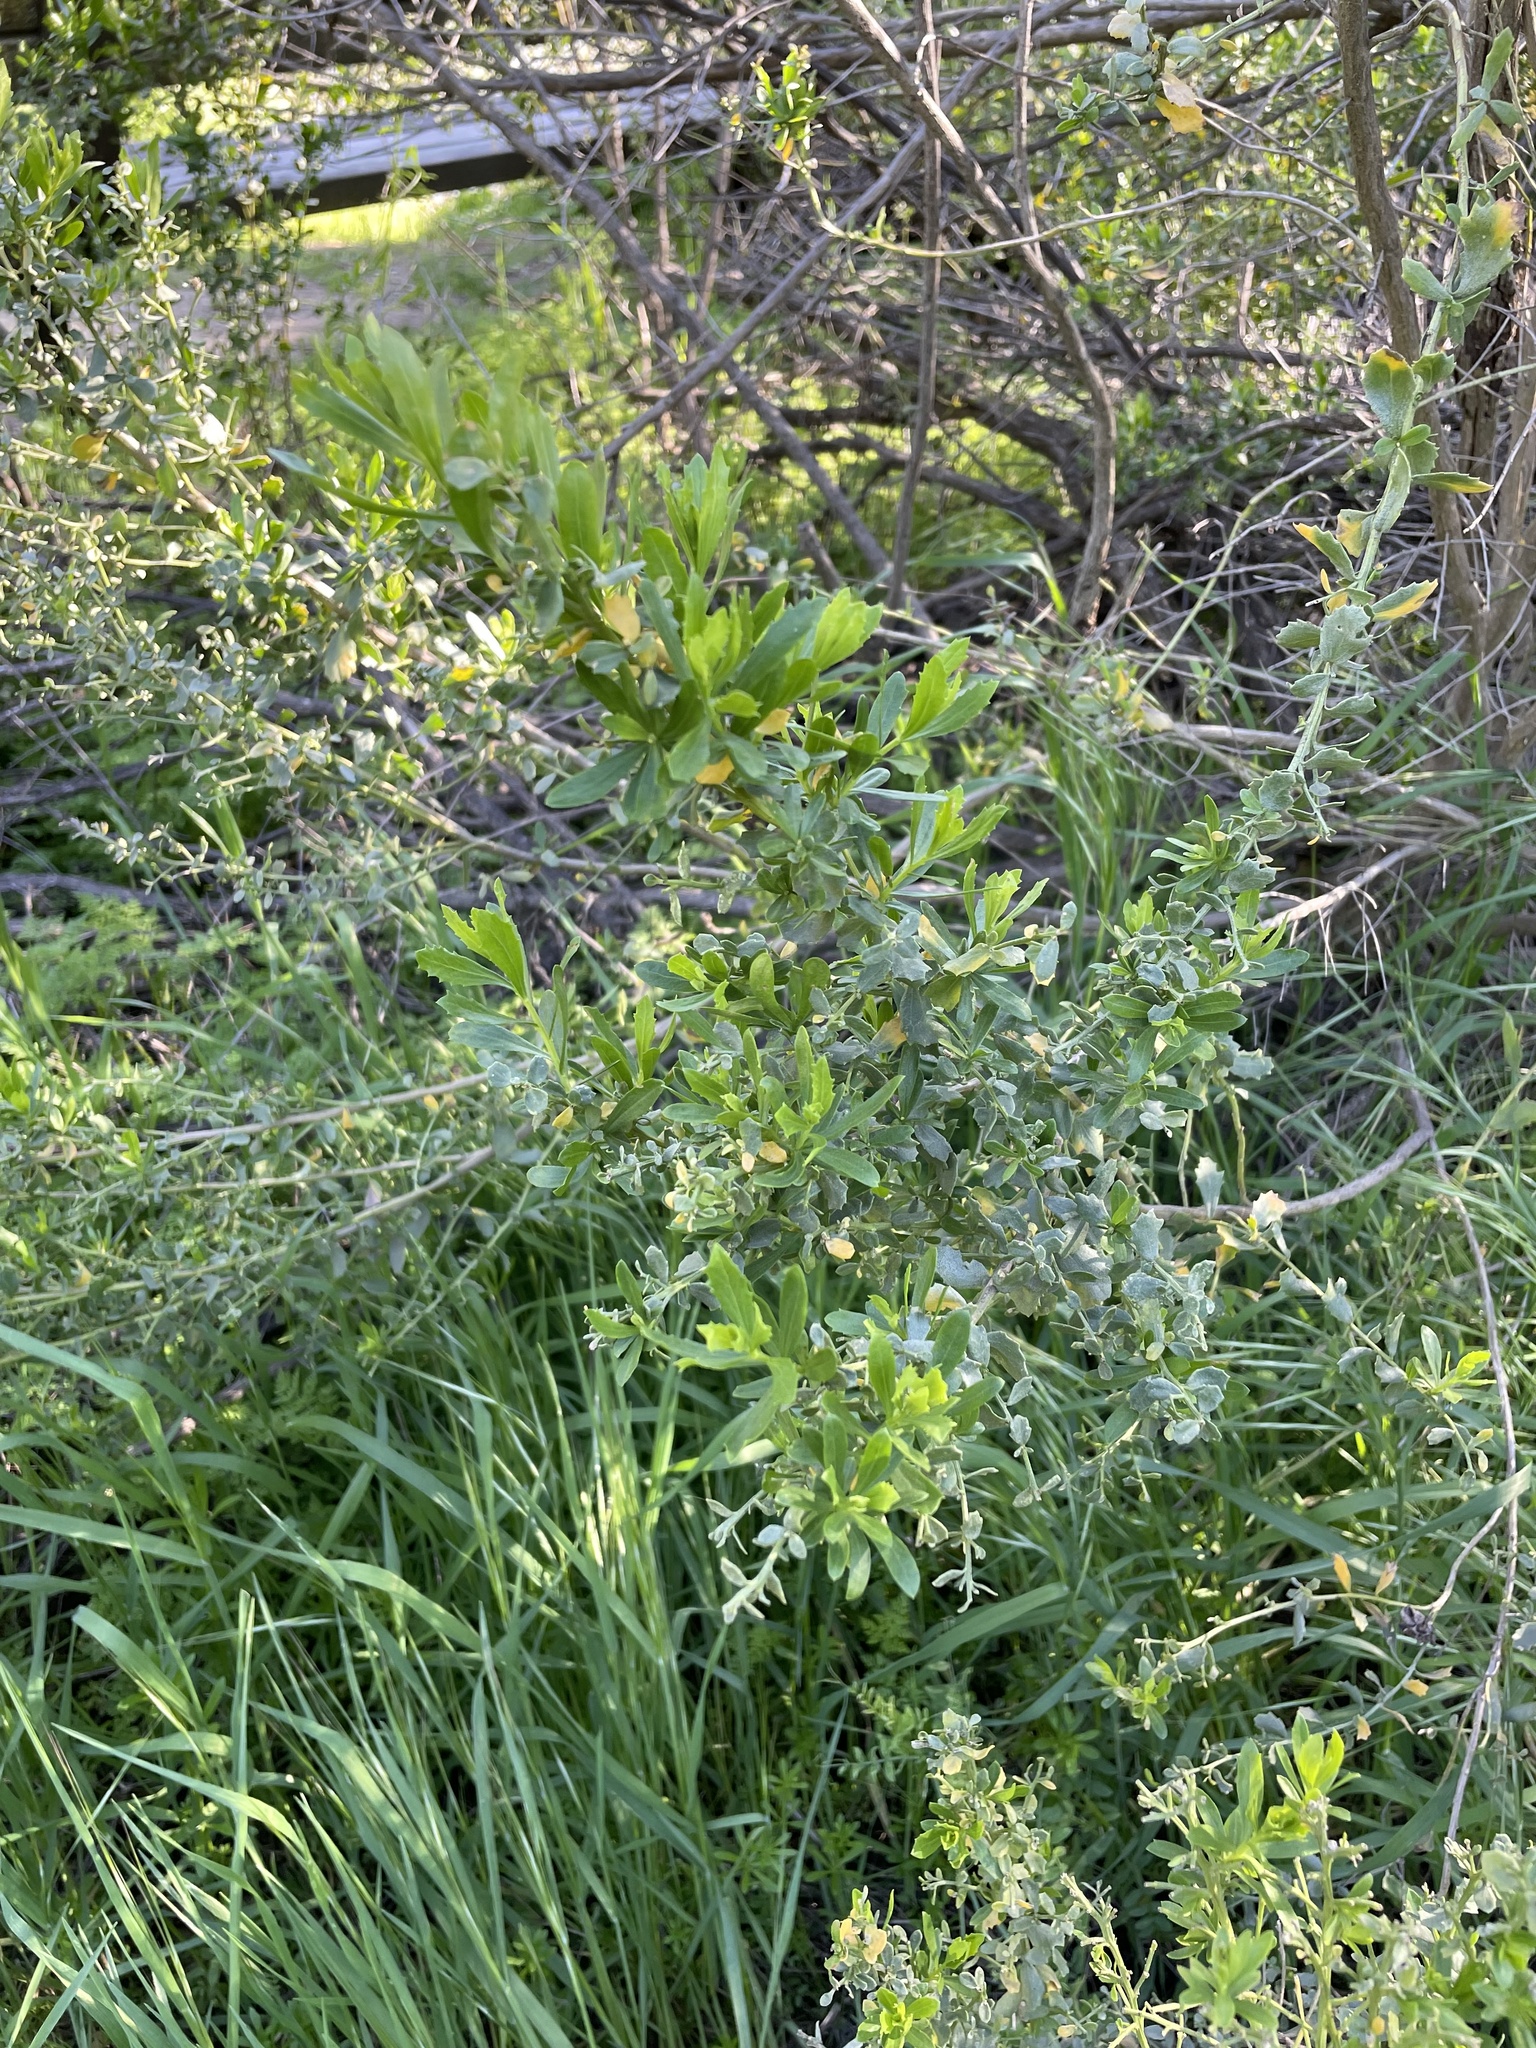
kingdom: Plantae
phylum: Tracheophyta
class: Magnoliopsida
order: Asterales
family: Asteraceae
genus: Baccharis
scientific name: Baccharis pilularis
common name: Coyotebrush
